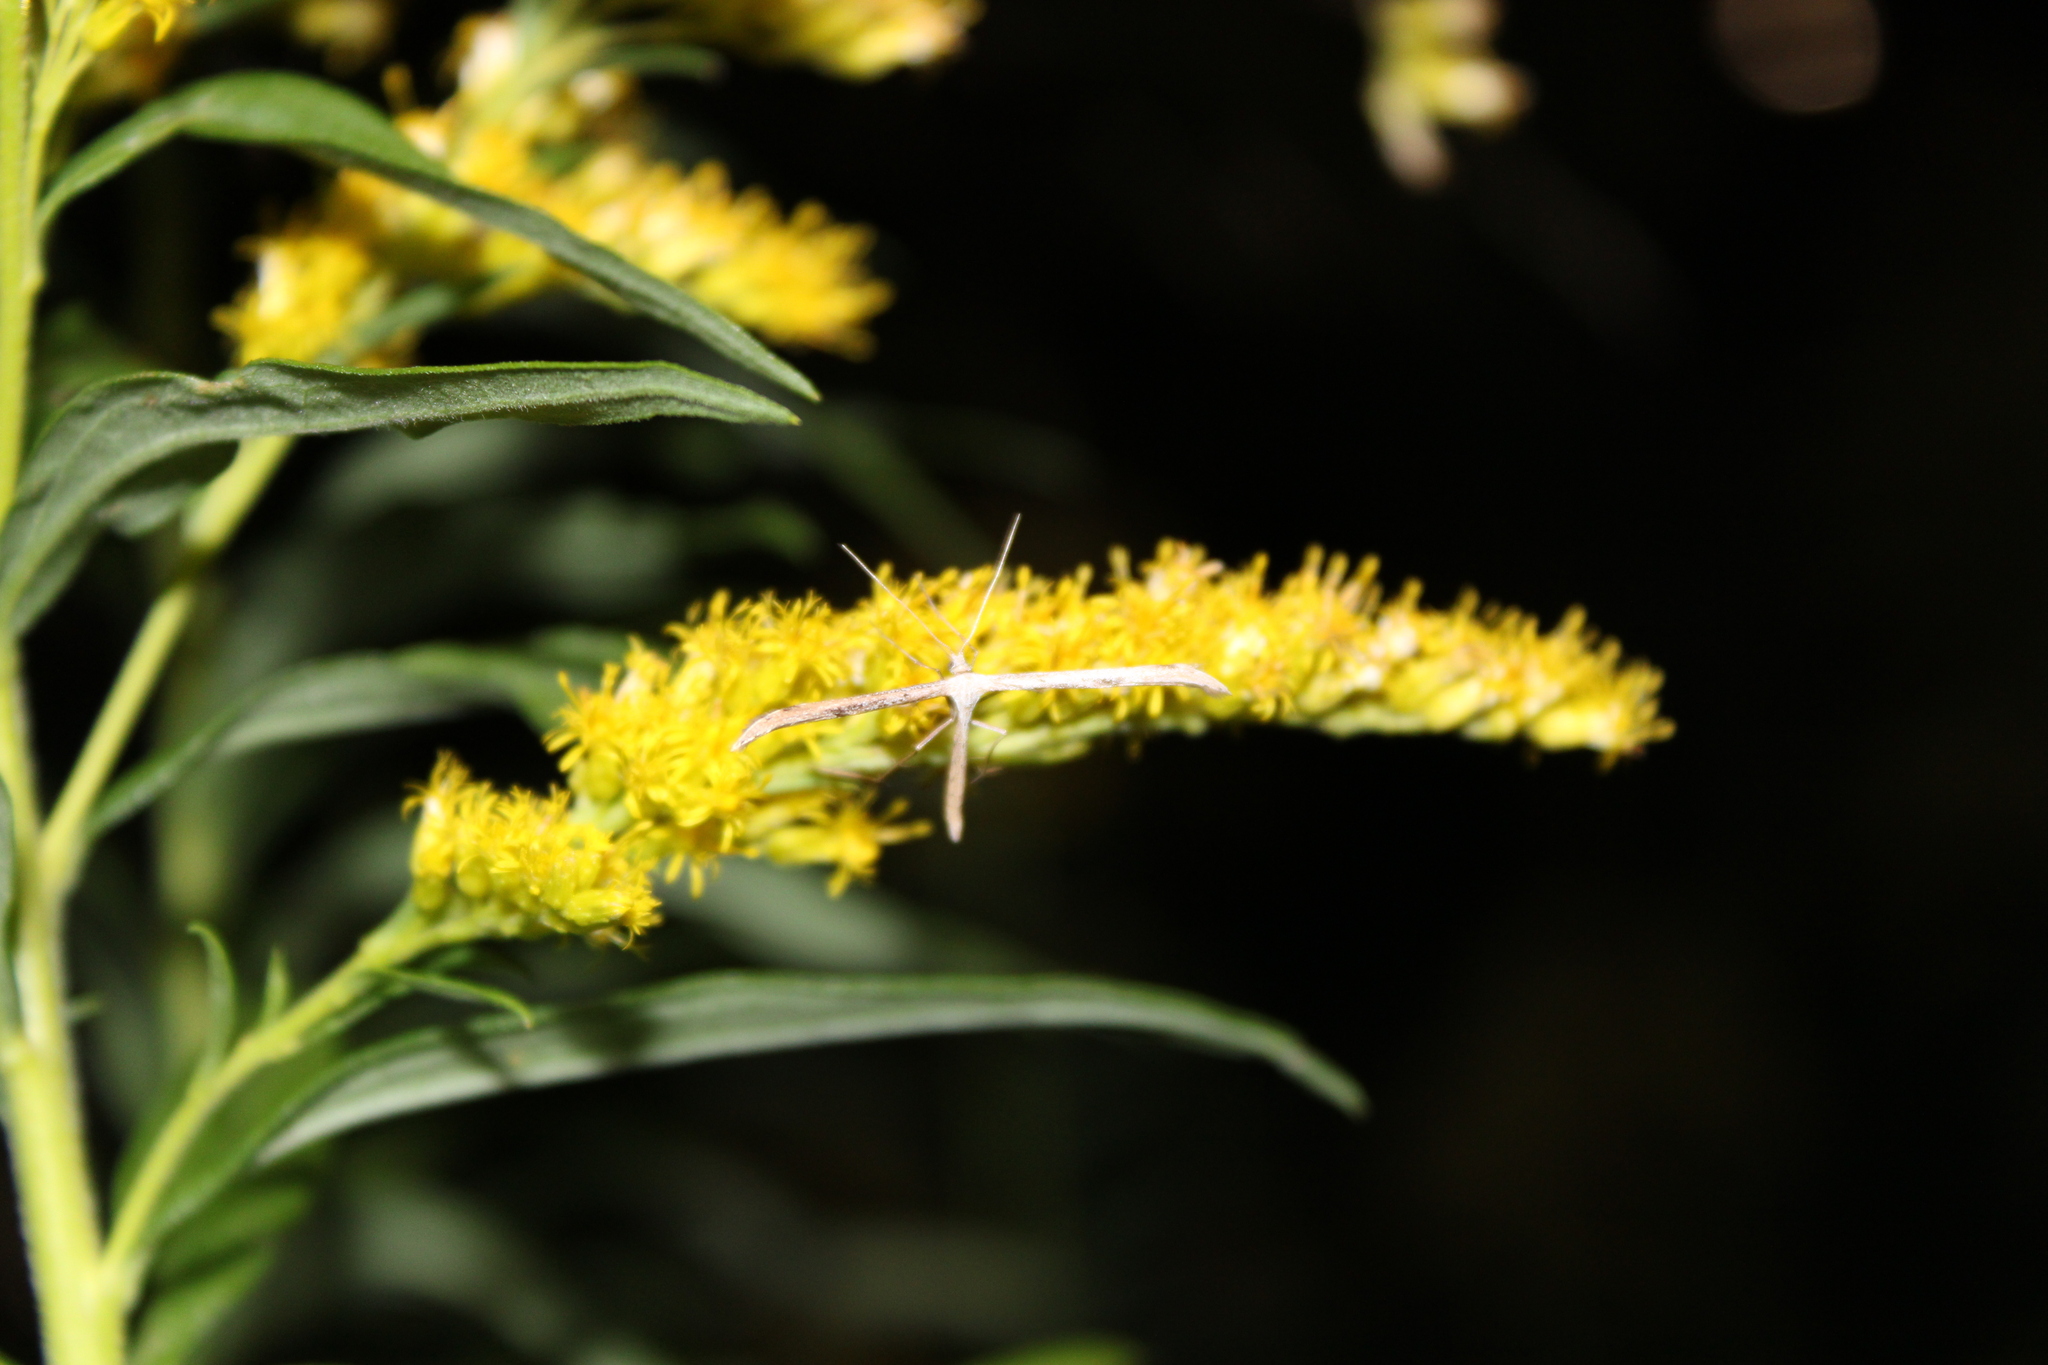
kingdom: Animalia
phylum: Arthropoda
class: Insecta
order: Lepidoptera
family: Pterophoridae
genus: Emmelina
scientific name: Emmelina monodactyla
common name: Common plume
